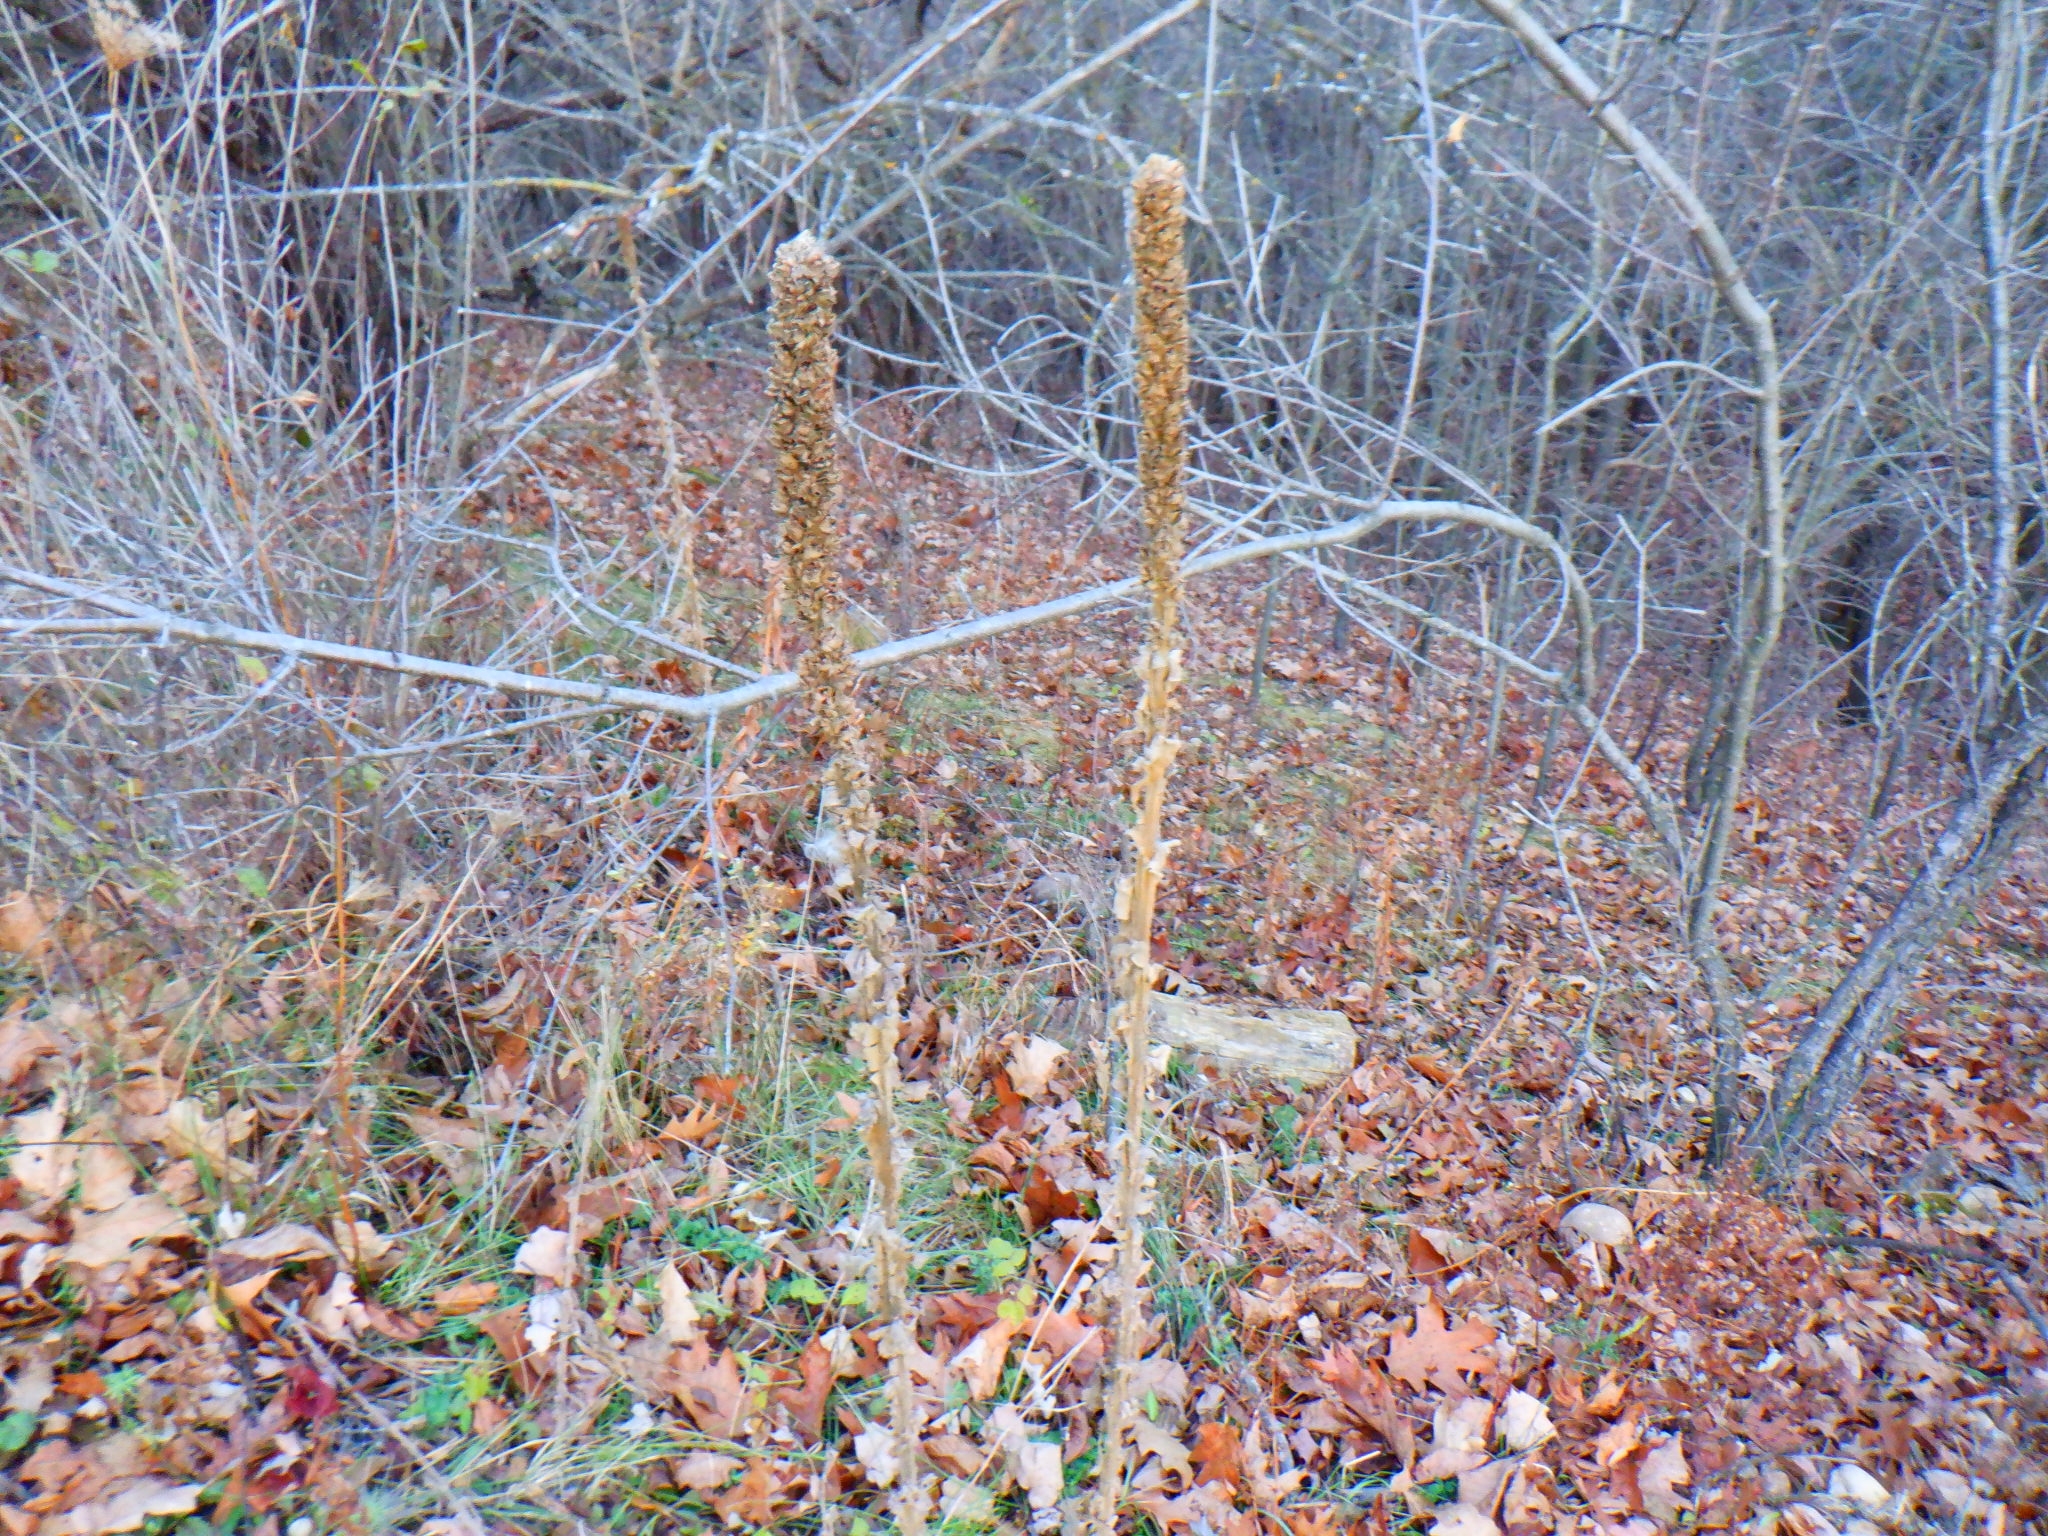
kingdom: Plantae
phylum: Tracheophyta
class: Magnoliopsida
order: Lamiales
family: Scrophulariaceae
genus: Verbascum
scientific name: Verbascum thapsus
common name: Common mullein
